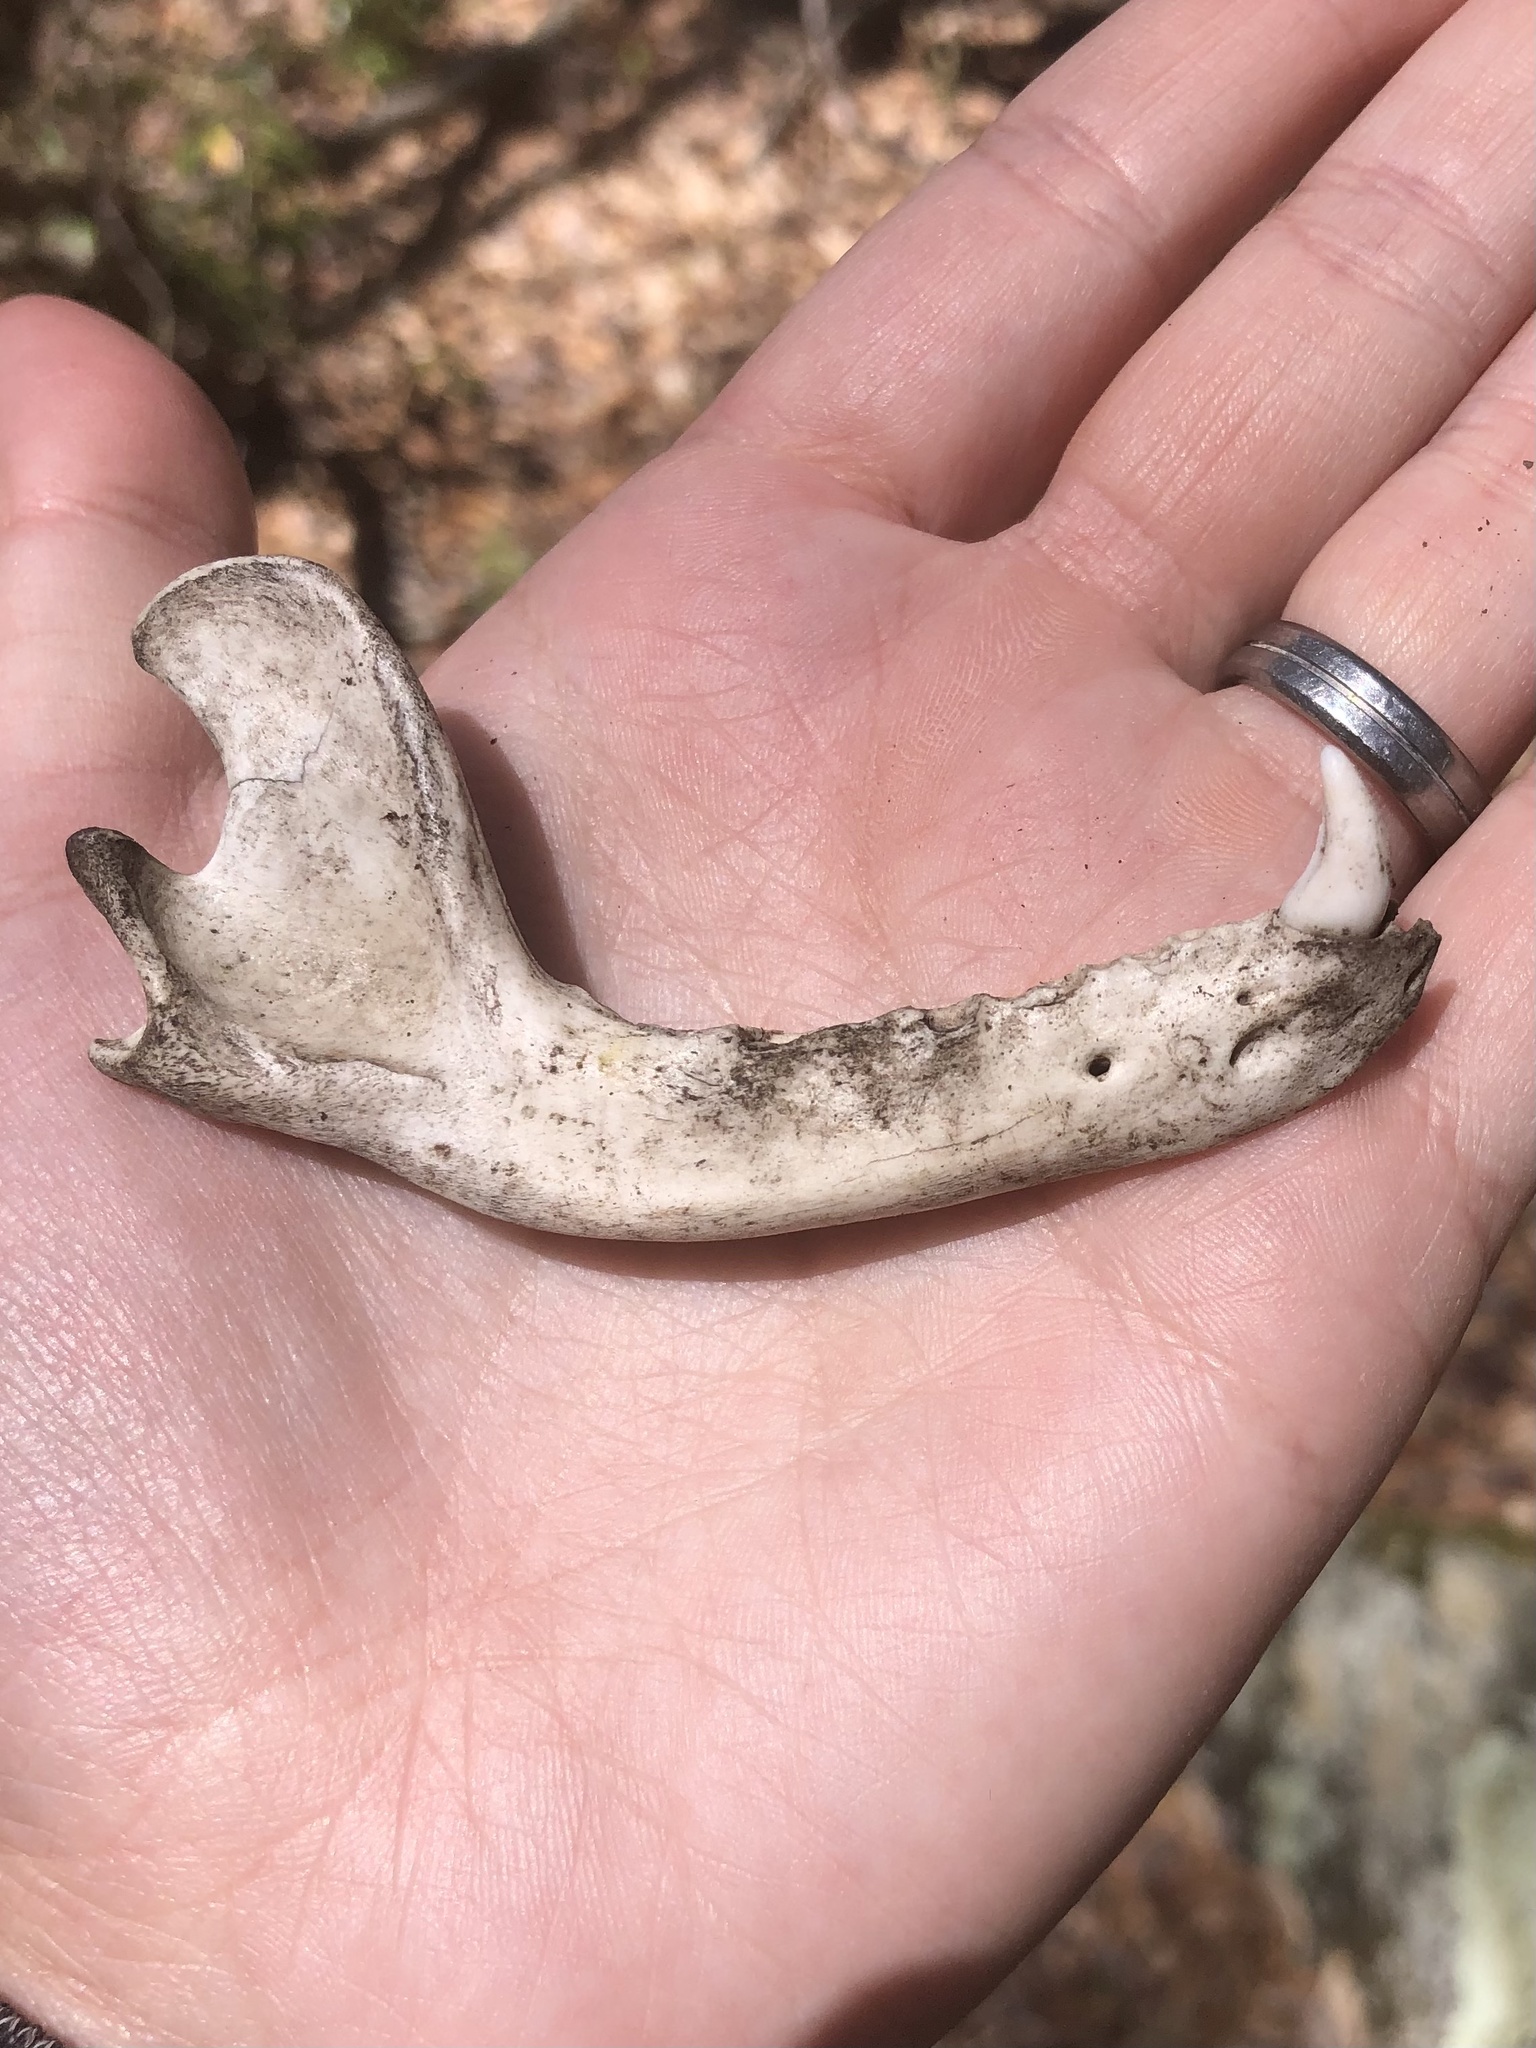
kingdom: Animalia
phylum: Chordata
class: Mammalia
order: Carnivora
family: Procyonidae
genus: Procyon
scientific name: Procyon lotor
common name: Raccoon
